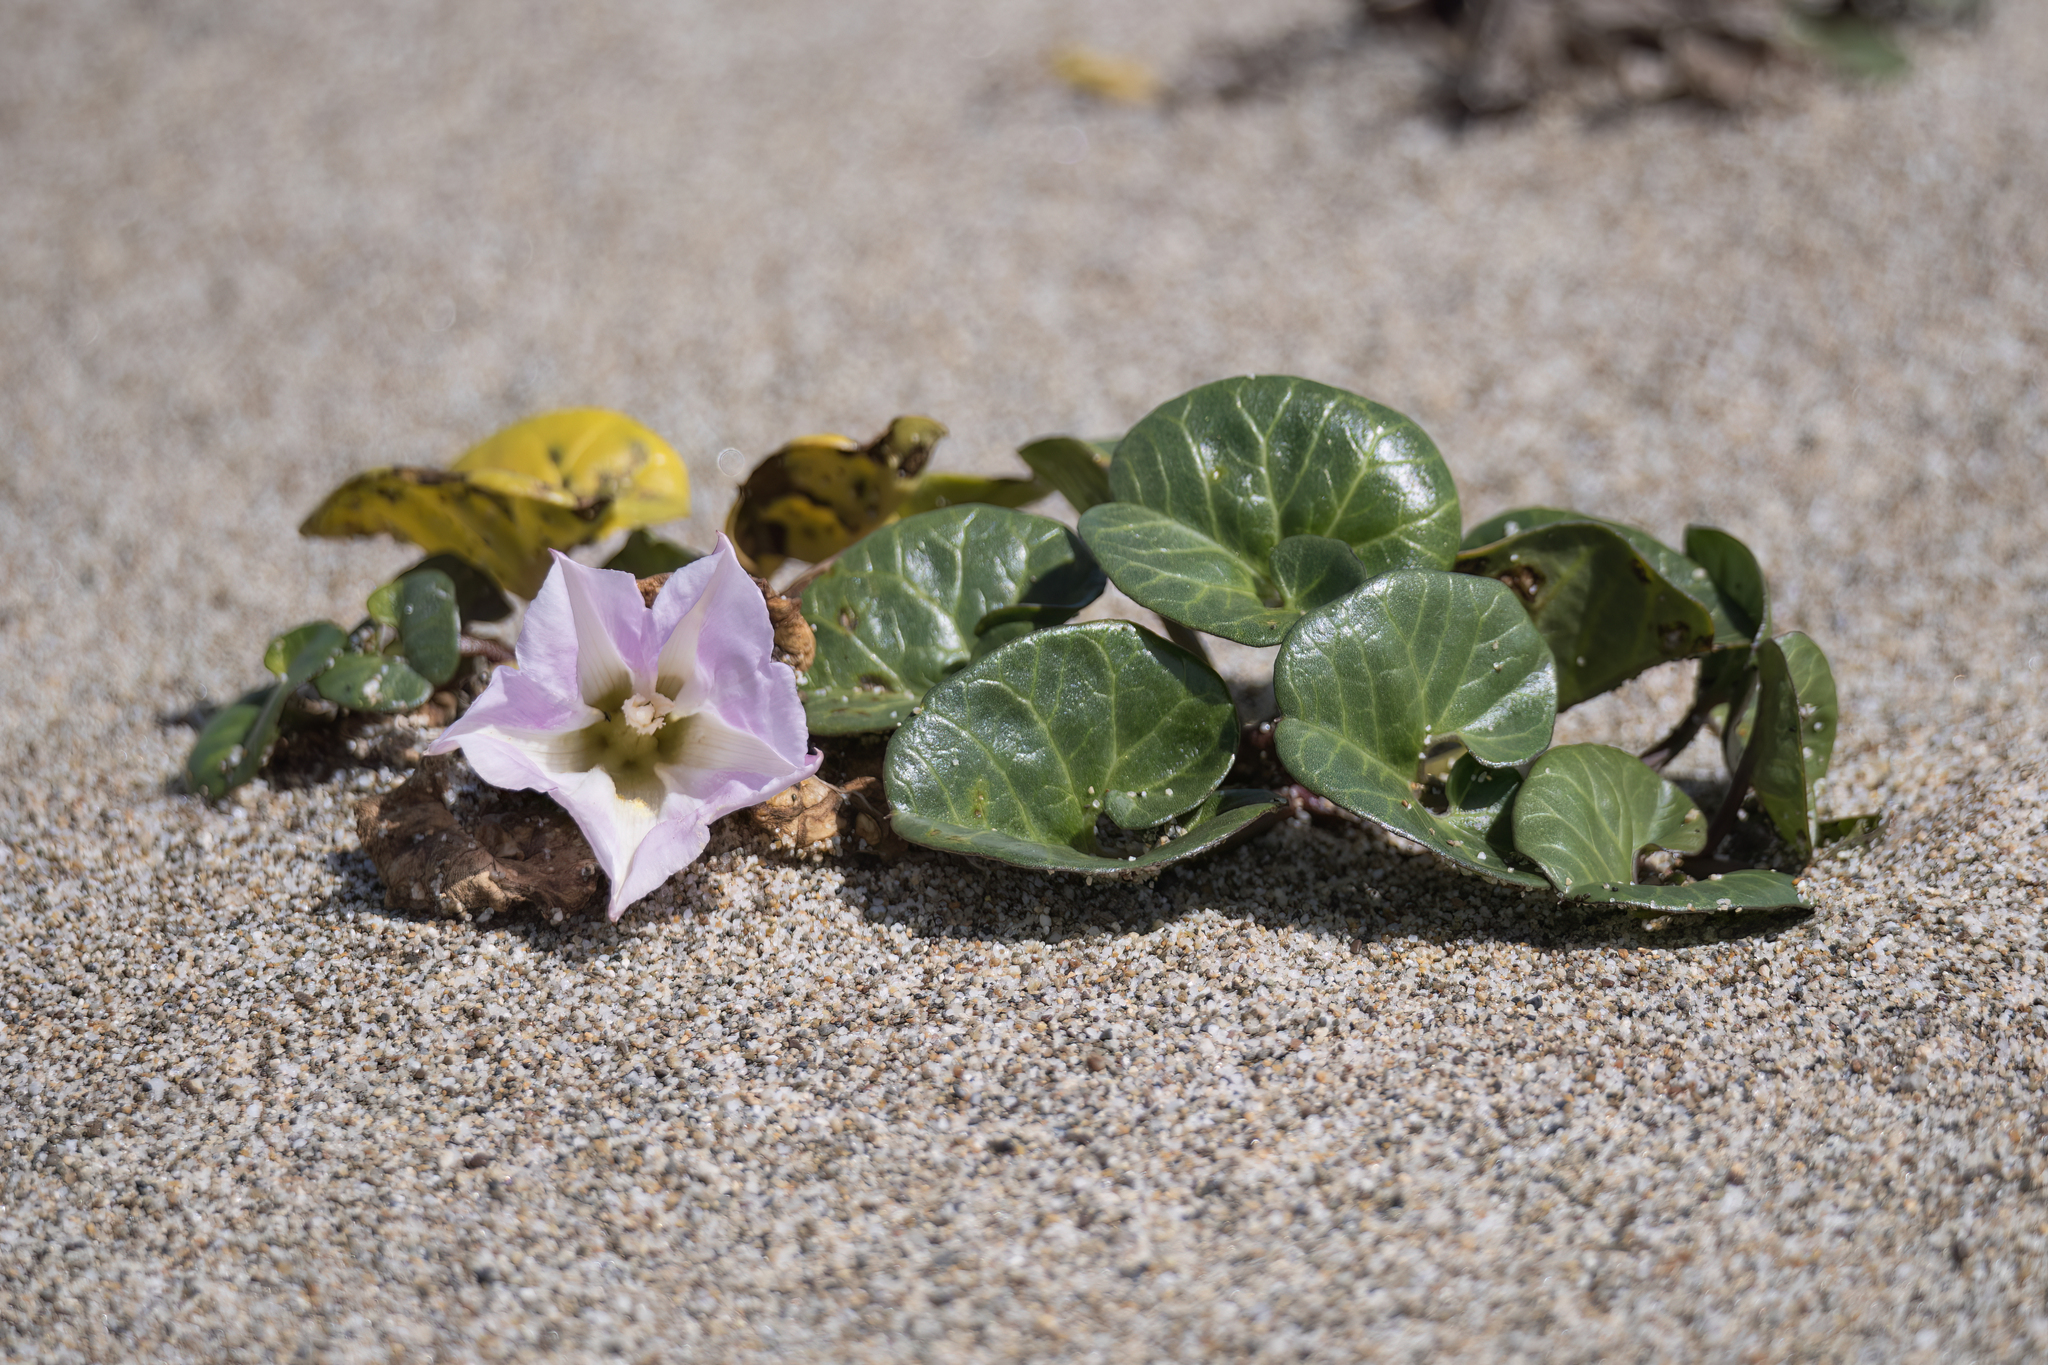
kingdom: Plantae
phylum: Tracheophyta
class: Magnoliopsida
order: Solanales
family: Convolvulaceae
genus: Calystegia
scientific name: Calystegia soldanella
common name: Sea bindweed
